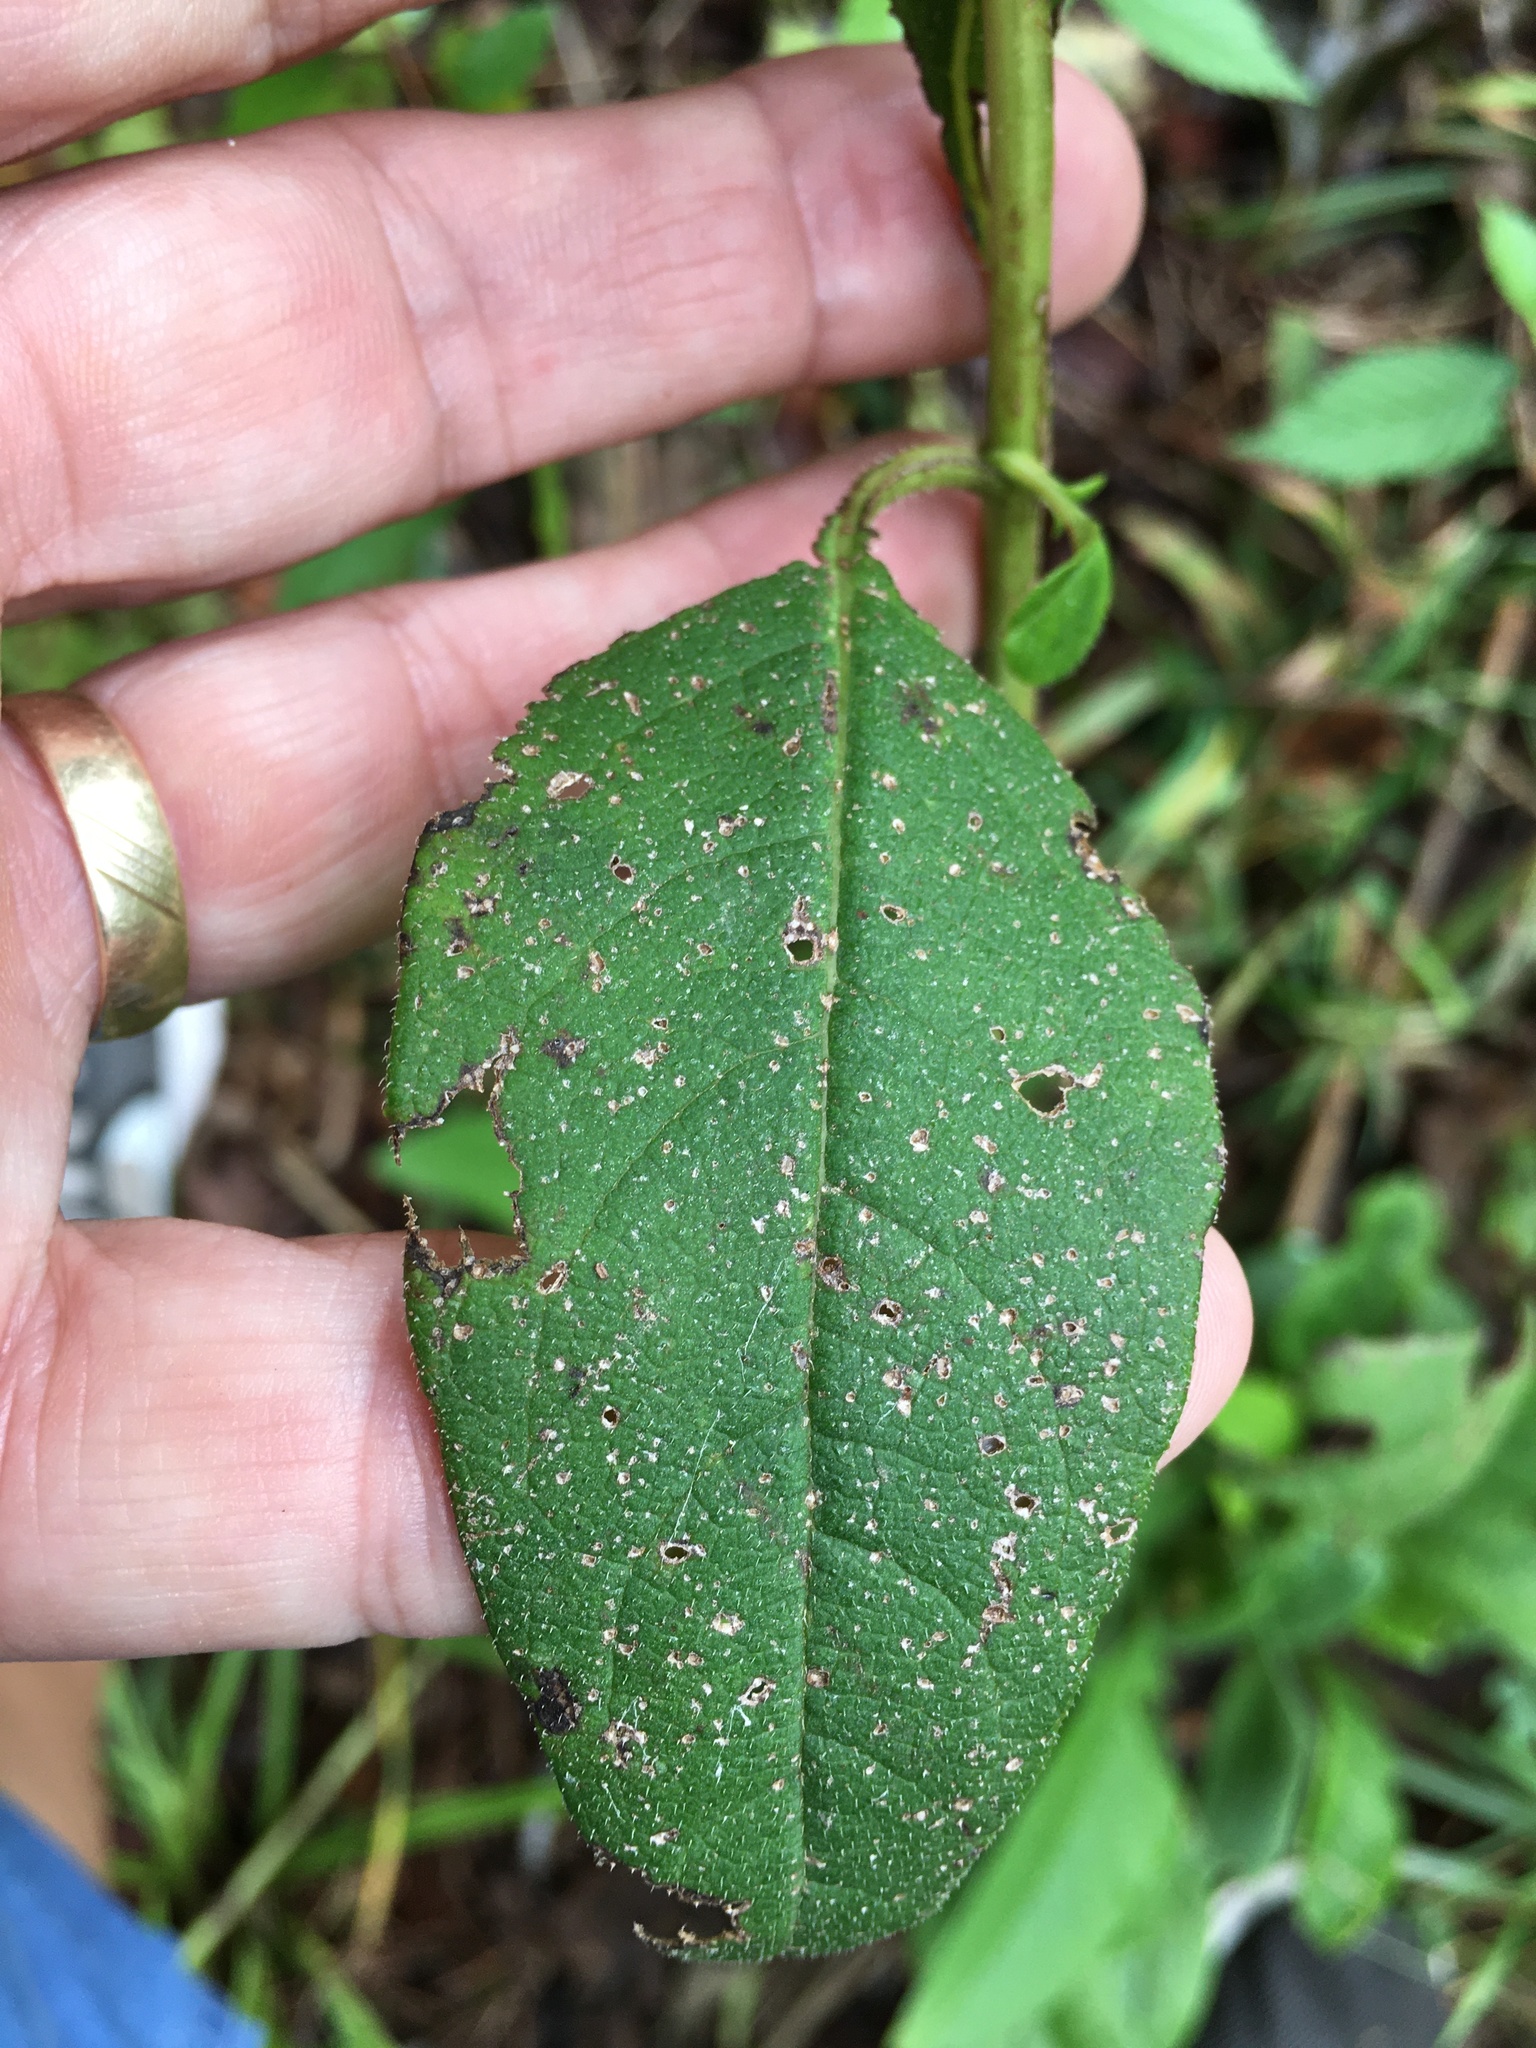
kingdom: Plantae
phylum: Tracheophyta
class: Magnoliopsida
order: Asterales
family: Asteraceae
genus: Silphium
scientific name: Silphium asteriscus
